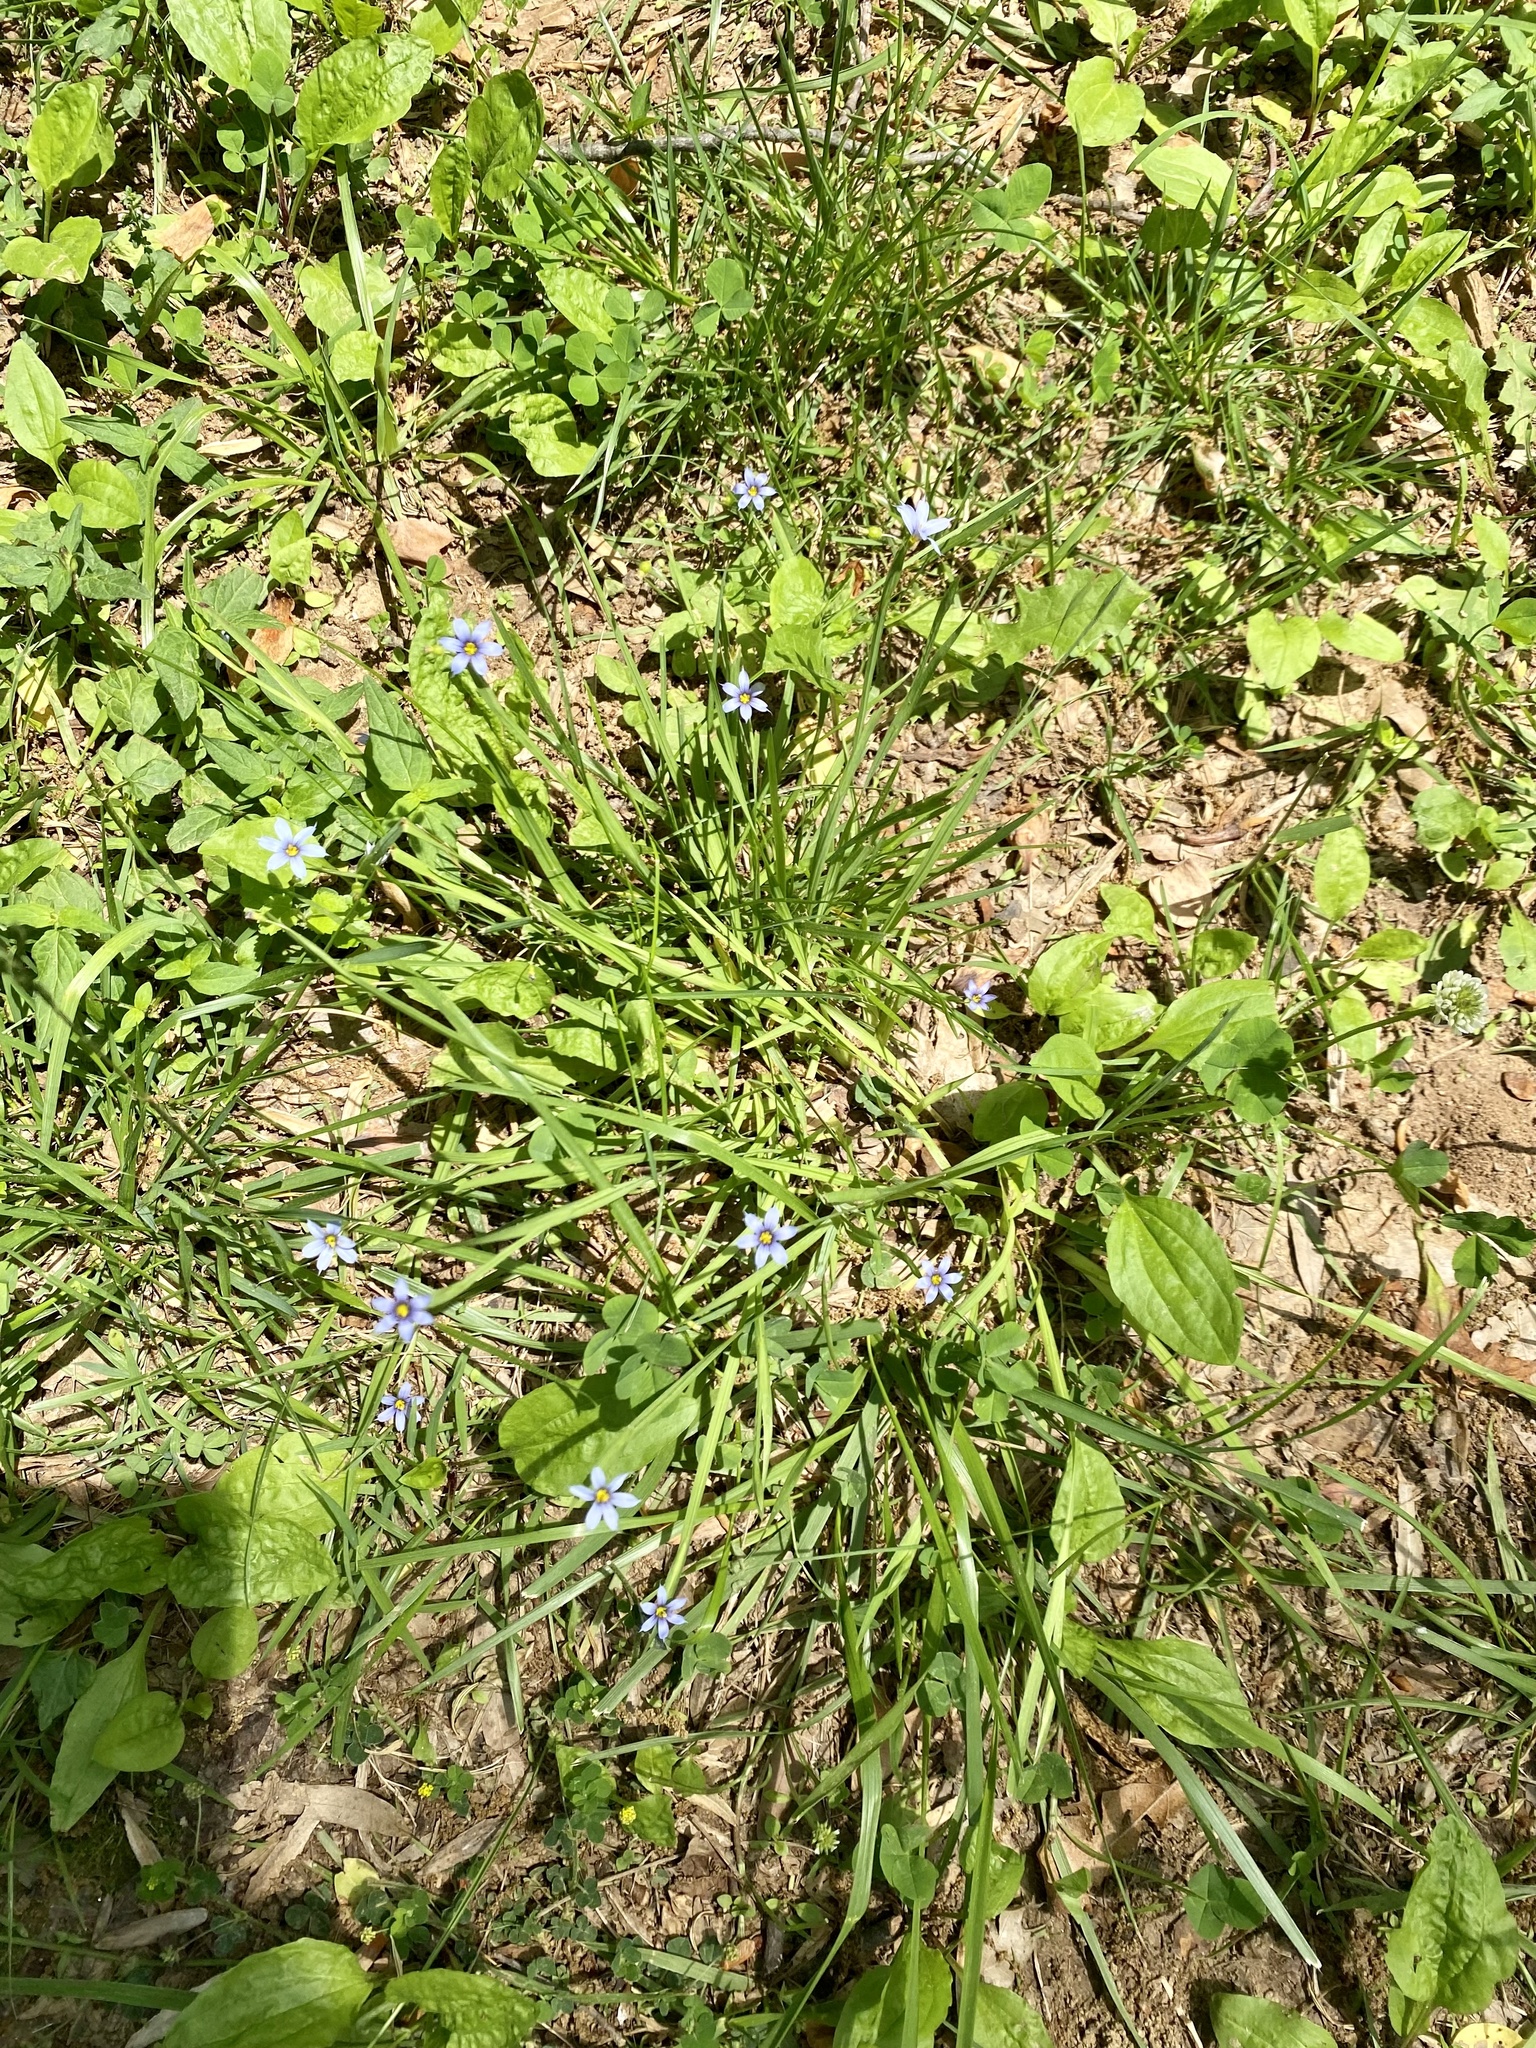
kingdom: Plantae
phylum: Tracheophyta
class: Liliopsida
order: Asparagales
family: Iridaceae
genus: Sisyrinchium
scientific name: Sisyrinchium angustifolium
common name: Narrow-leaf blue-eyed-grass
